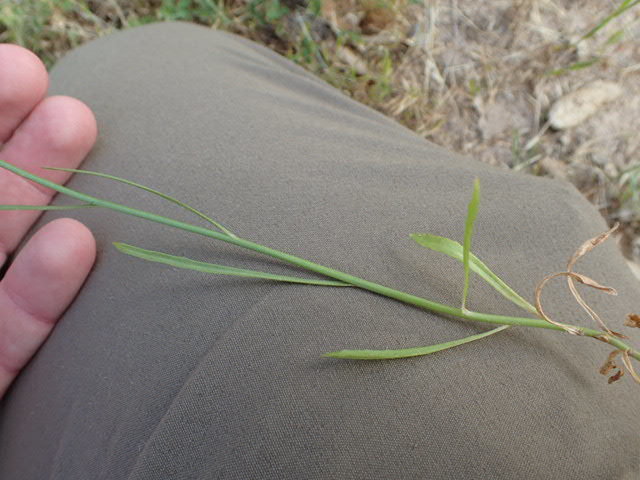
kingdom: Plantae
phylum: Tracheophyta
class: Magnoliopsida
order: Asterales
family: Campanulaceae
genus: Wahlenbergia
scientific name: Wahlenbergia marginata
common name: Southern rockbell
